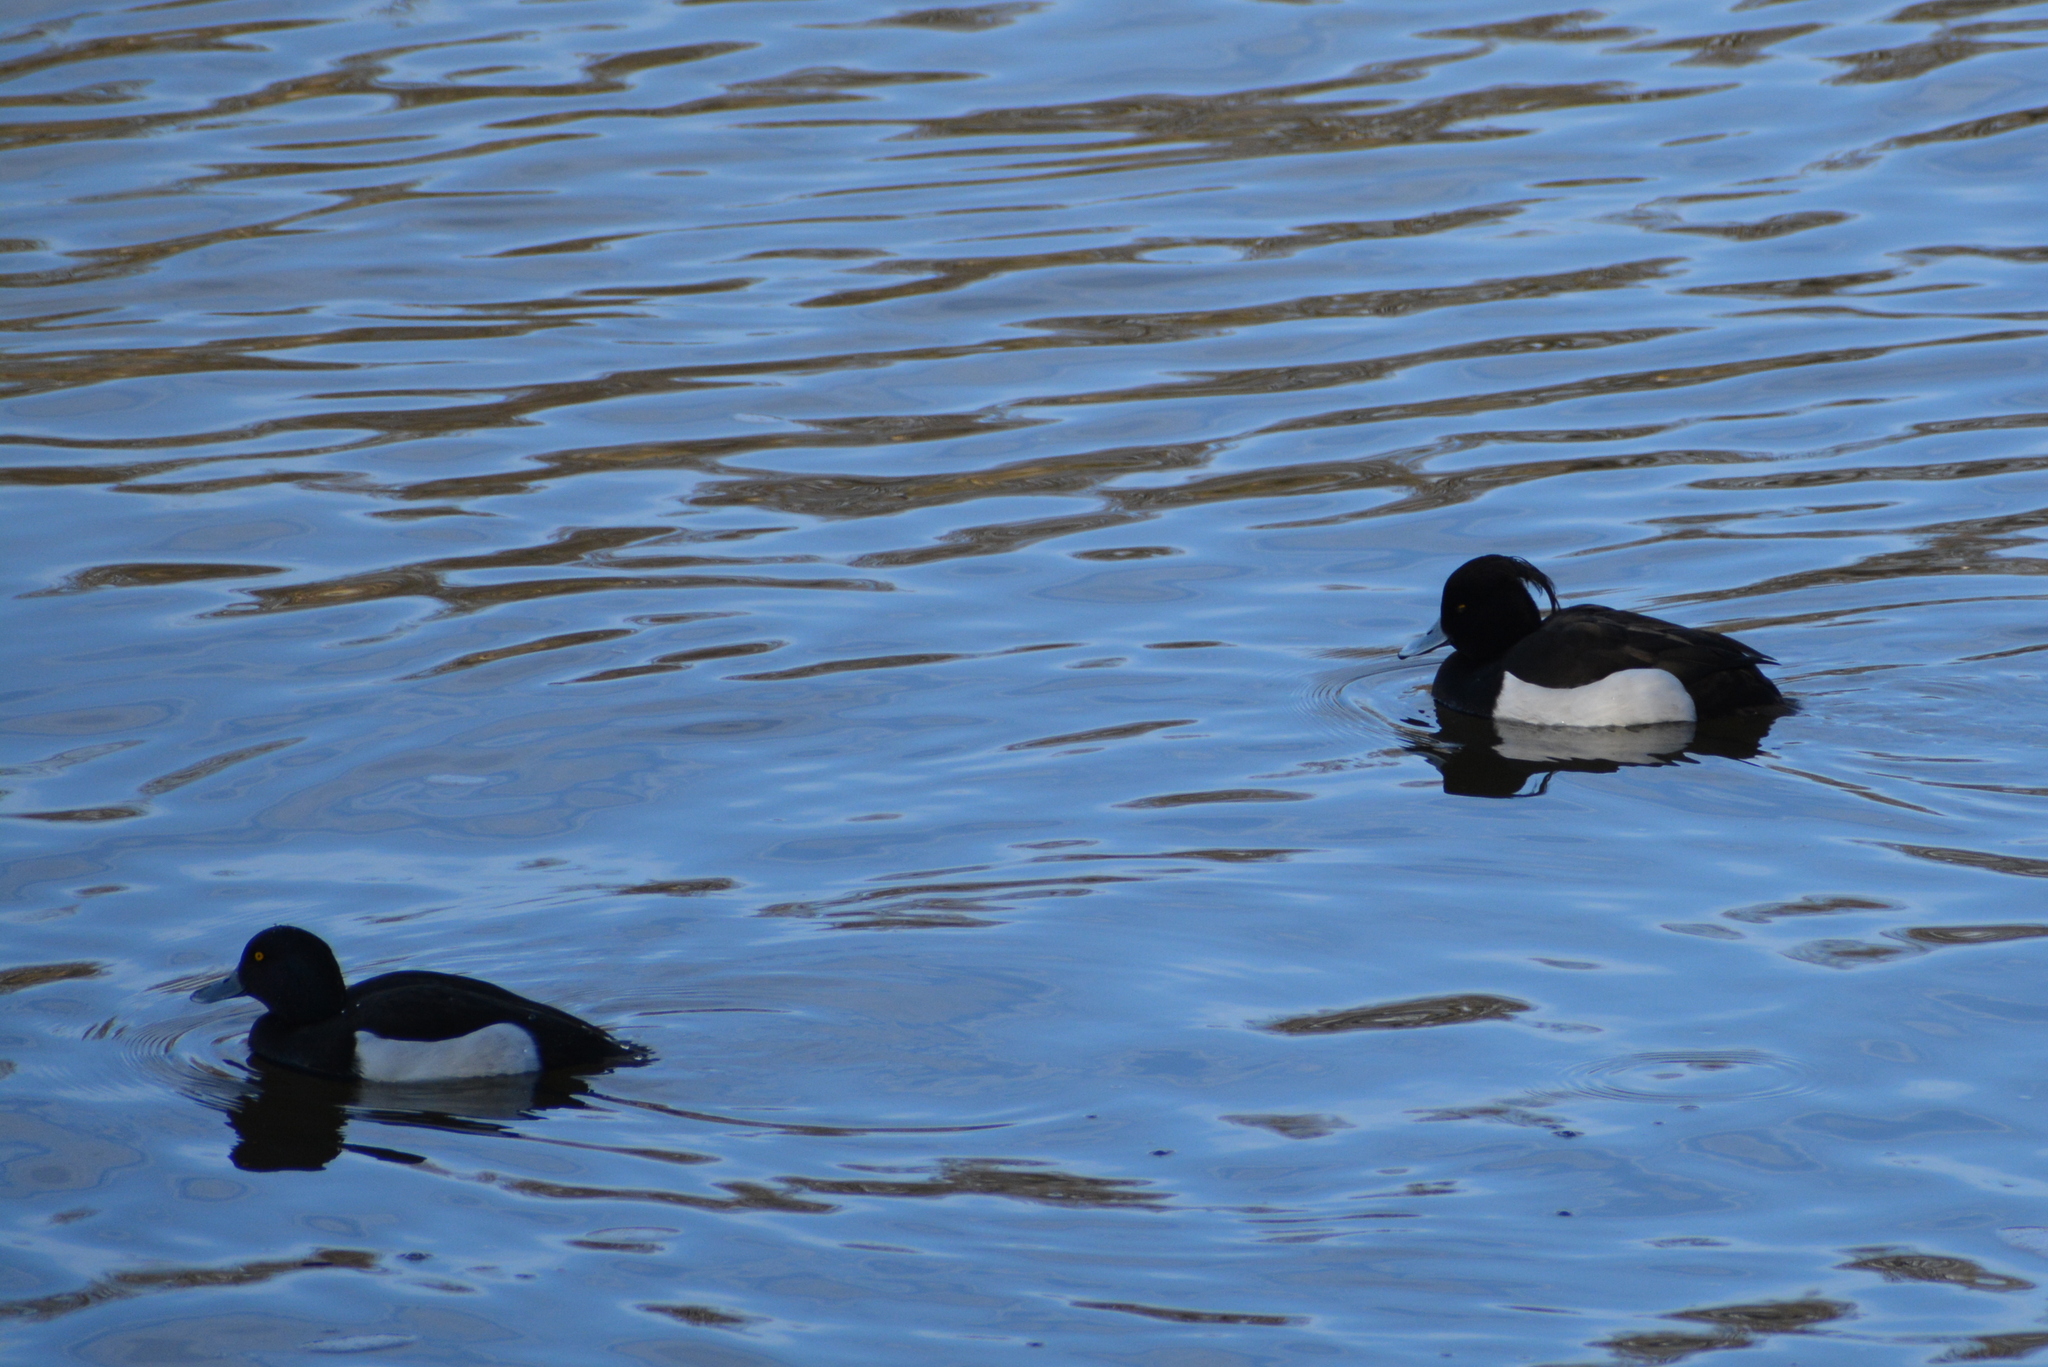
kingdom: Animalia
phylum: Chordata
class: Aves
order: Anseriformes
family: Anatidae
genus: Aythya
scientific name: Aythya fuligula
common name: Tufted duck
